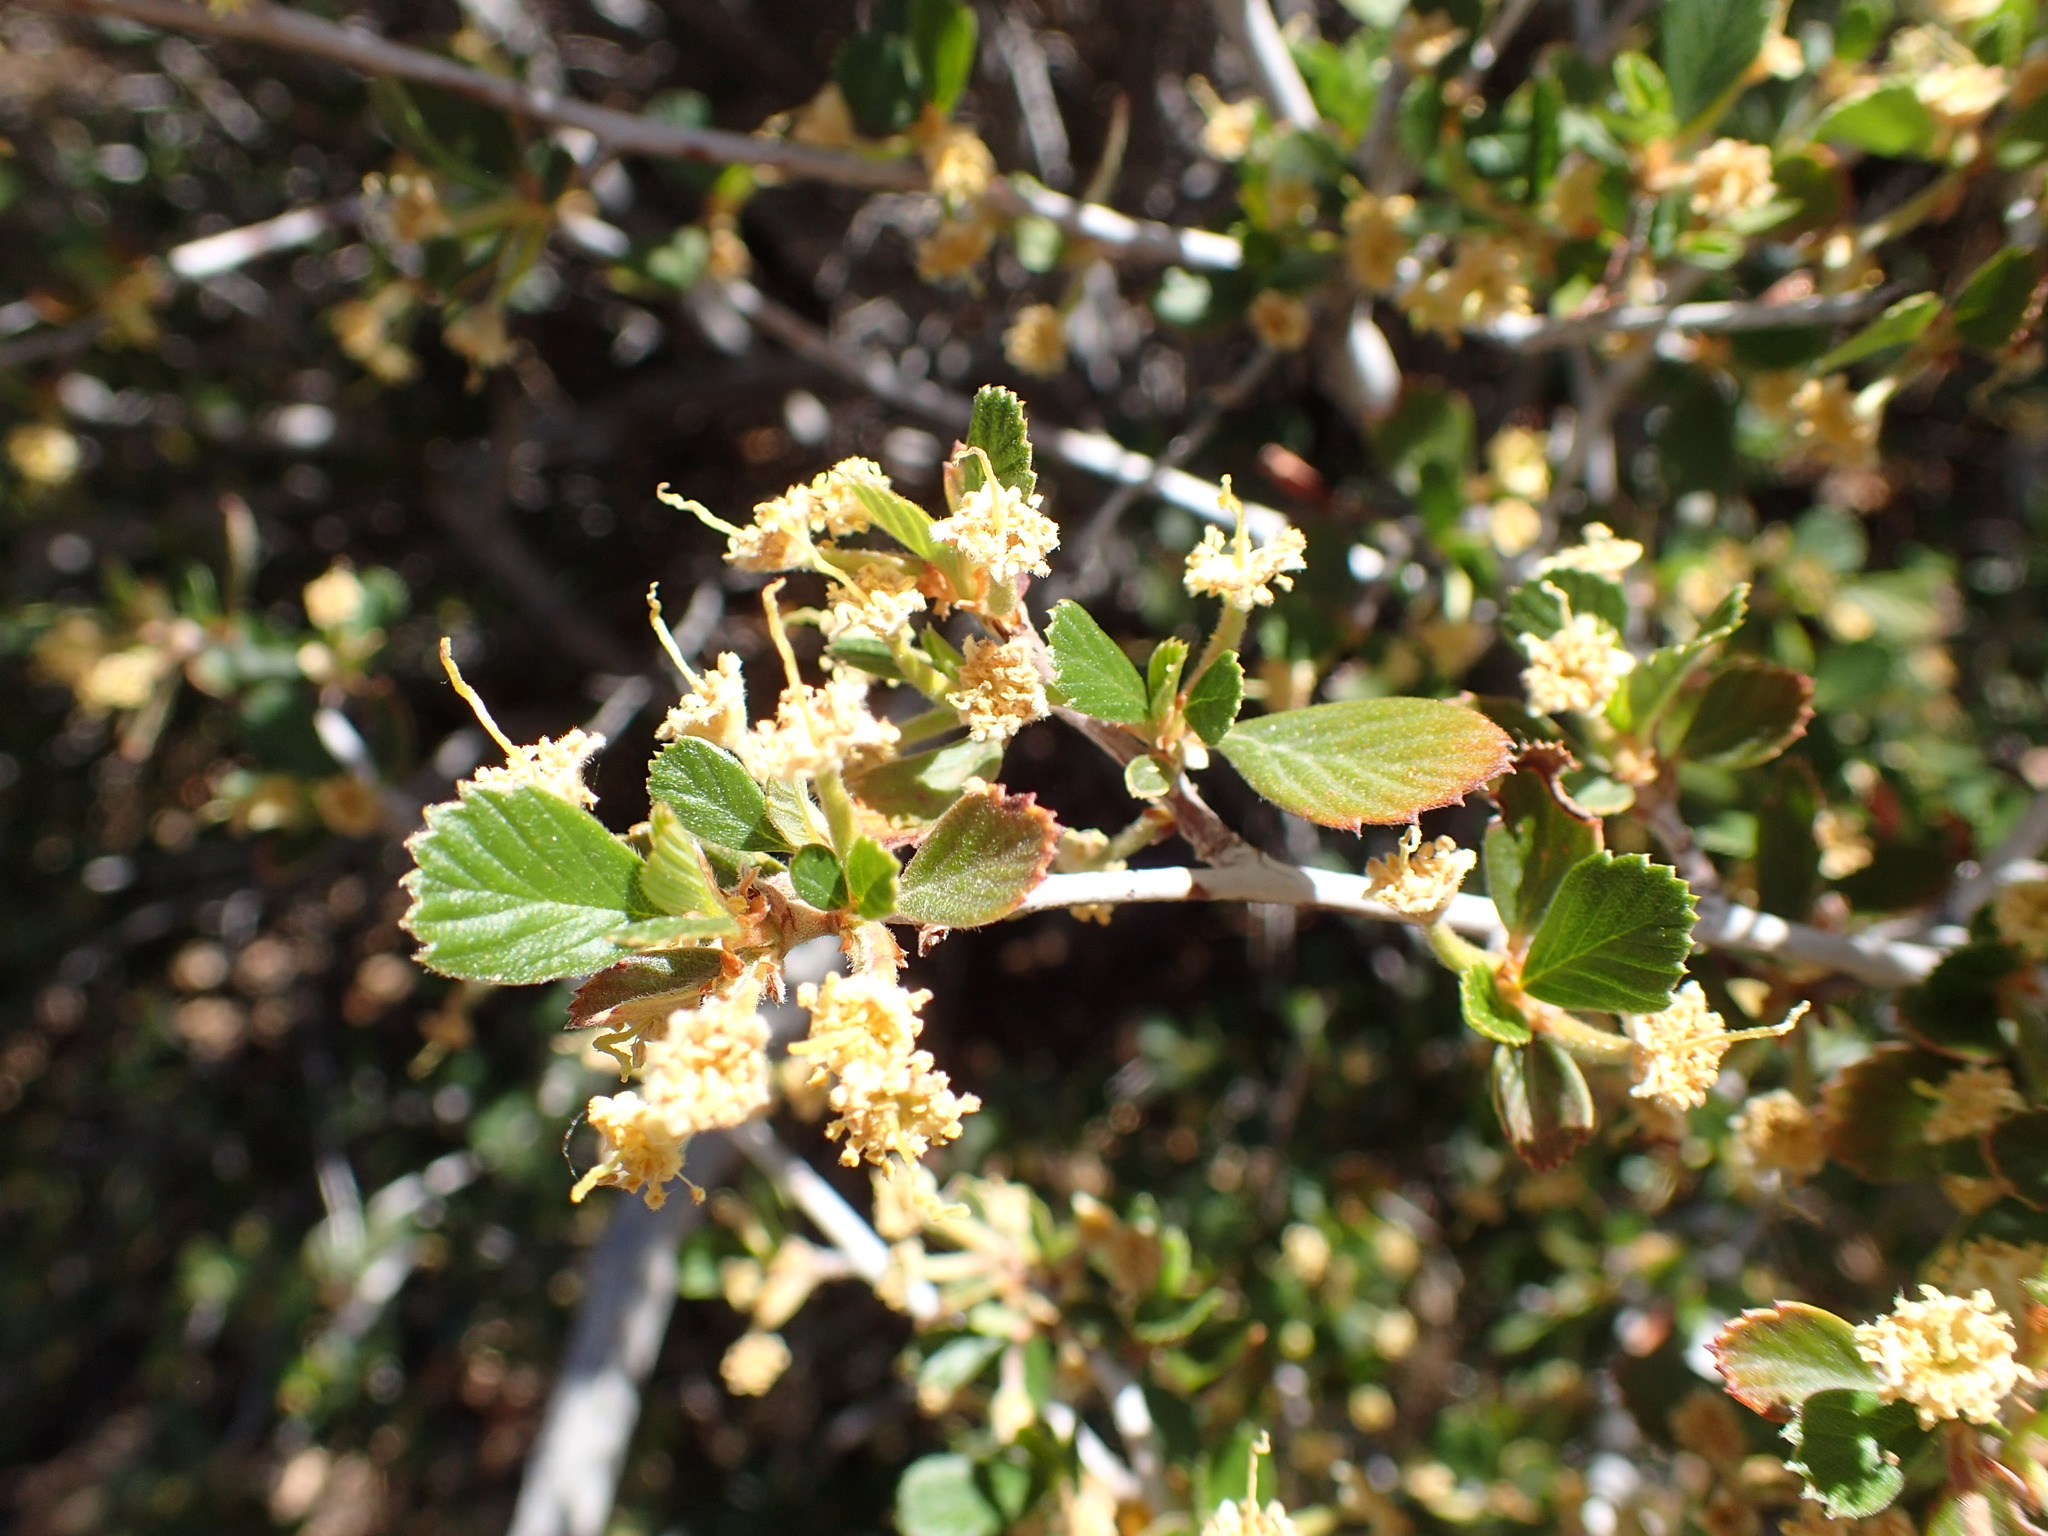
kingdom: Plantae
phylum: Tracheophyta
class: Magnoliopsida
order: Rosales
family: Rosaceae
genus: Cercocarpus
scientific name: Cercocarpus betuloides
